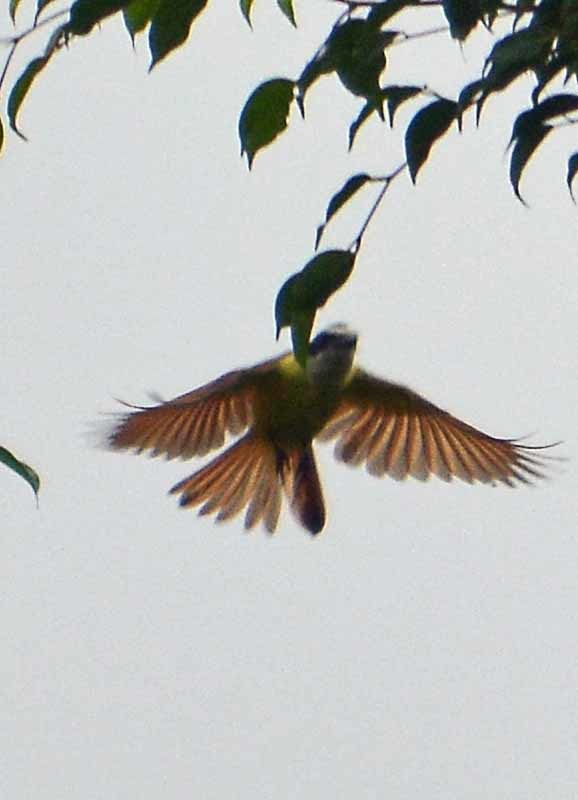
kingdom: Animalia
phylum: Chordata
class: Aves
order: Passeriformes
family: Tyrannidae
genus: Myiozetetes
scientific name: Myiozetetes similis
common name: Social flycatcher
